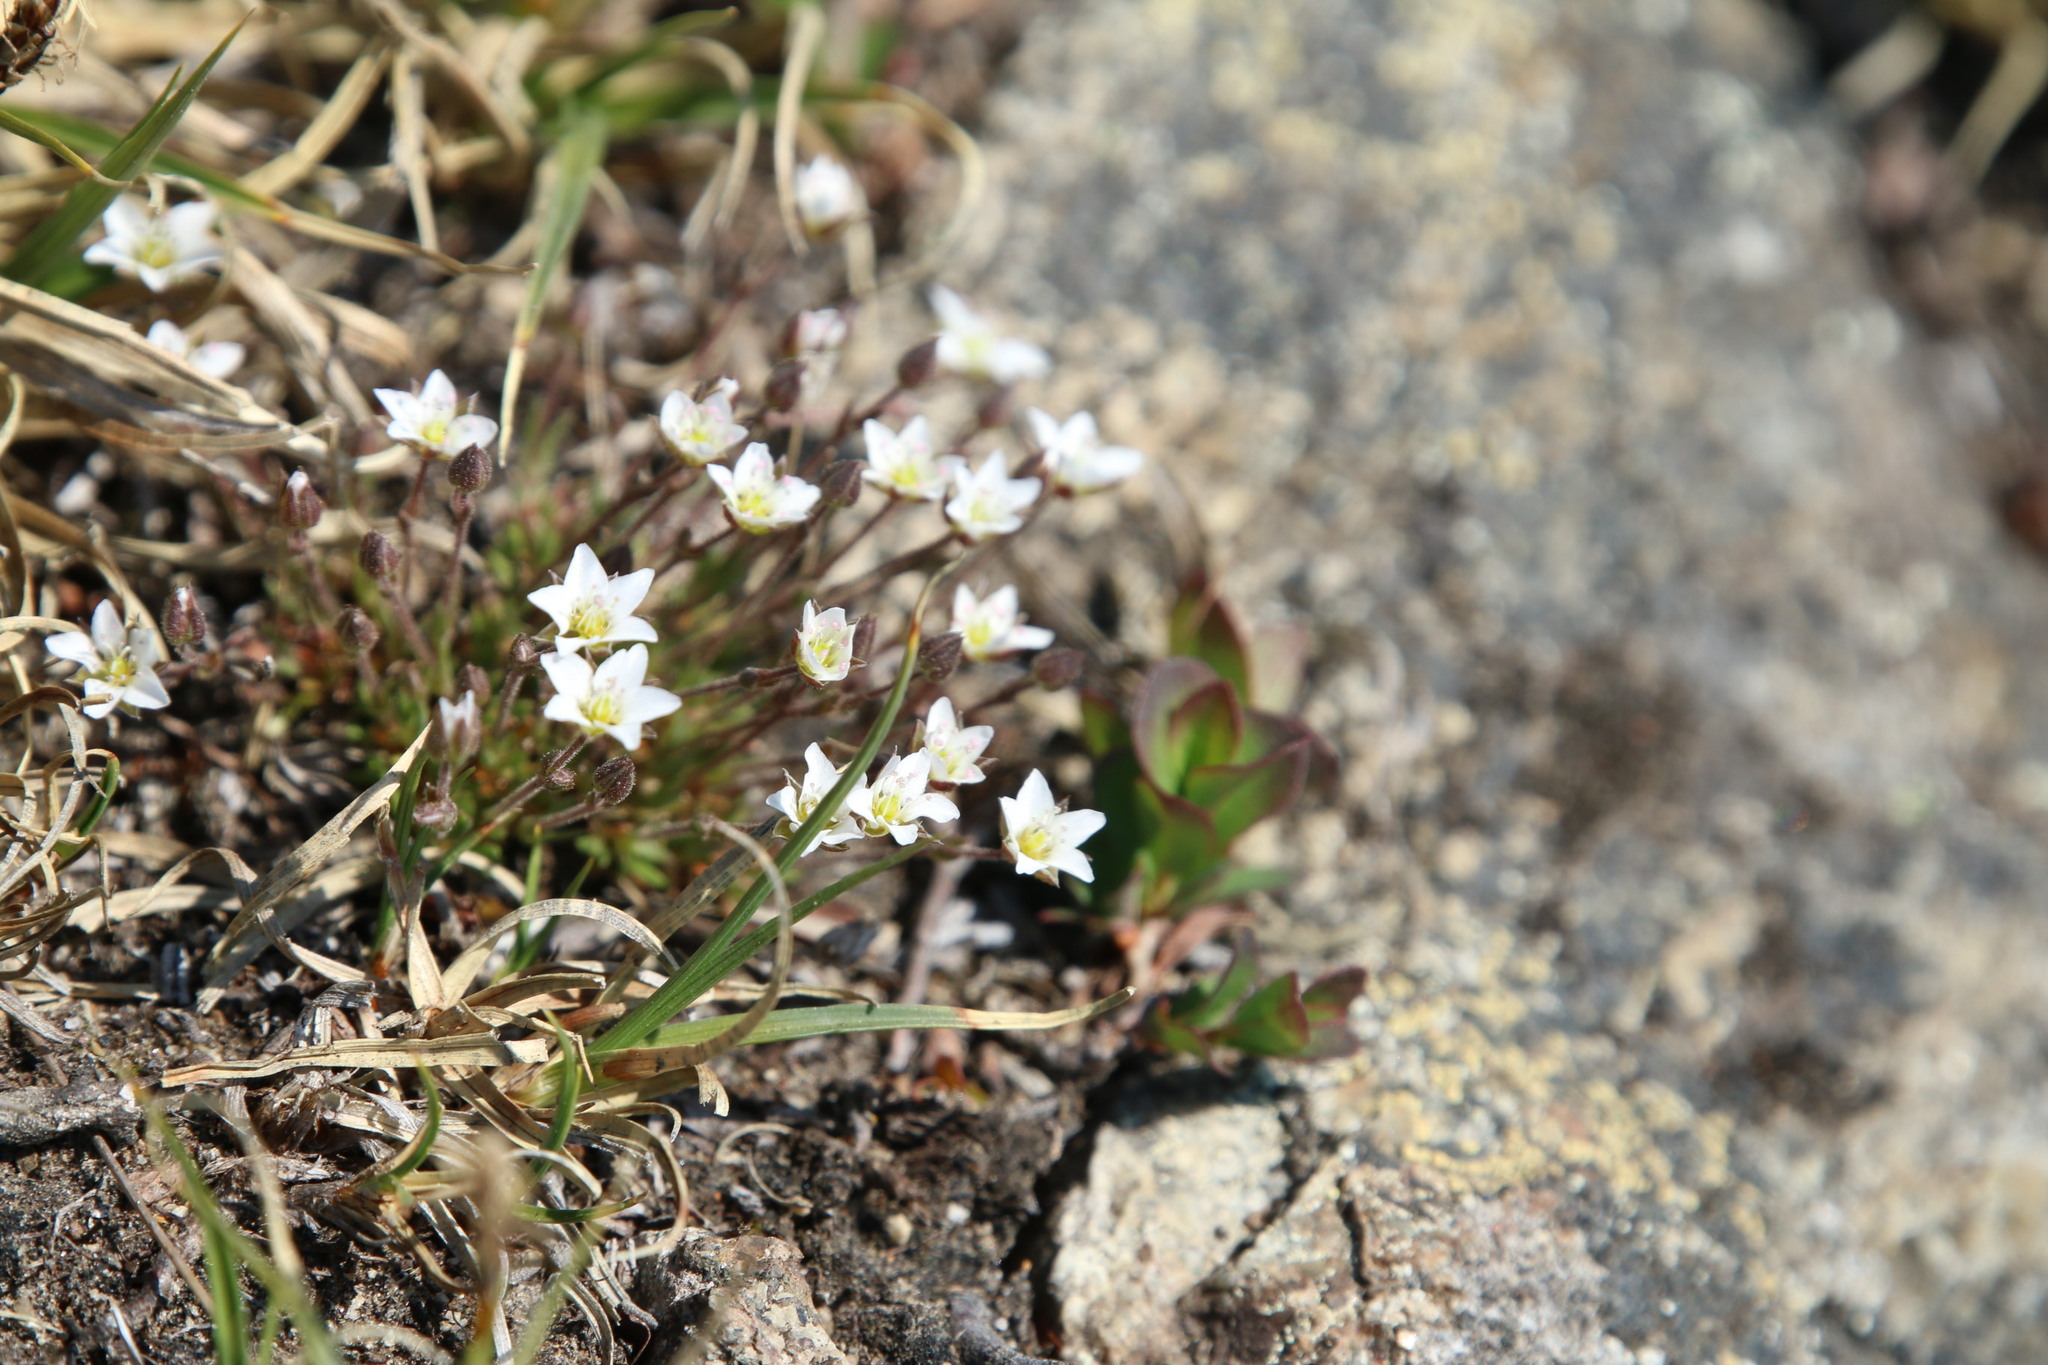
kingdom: Plantae
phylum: Tracheophyta
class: Magnoliopsida
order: Caryophyllales
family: Caryophyllaceae
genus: Sabulina
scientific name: Sabulina elegans
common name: Elegant stitchwort
